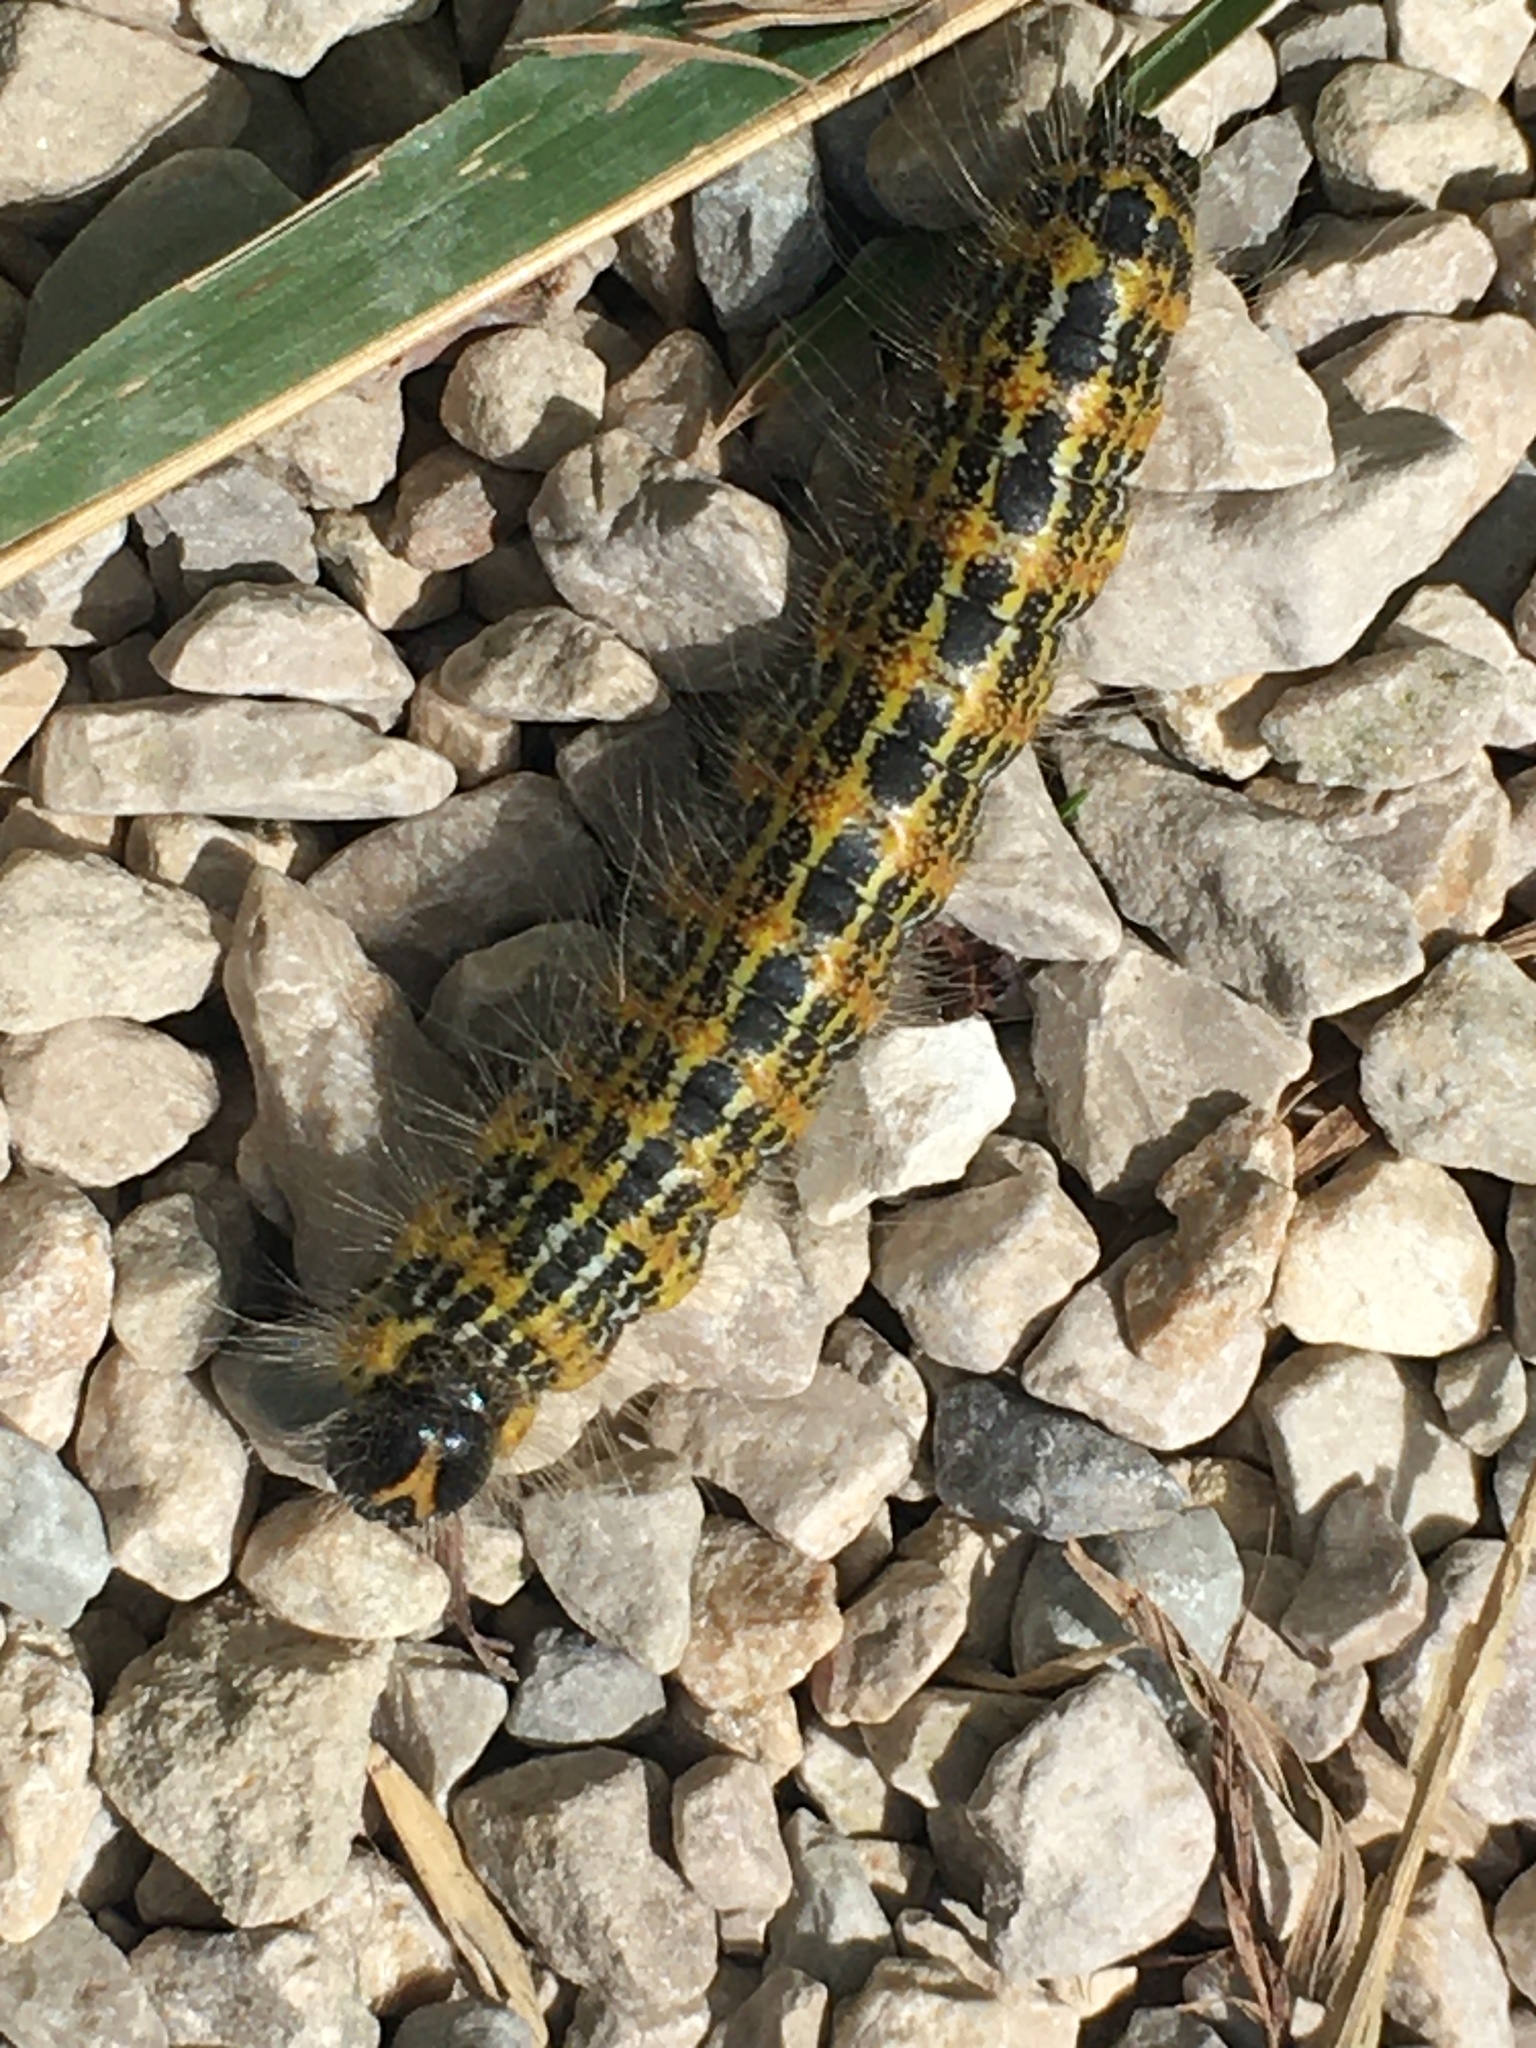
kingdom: Animalia
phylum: Arthropoda
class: Insecta
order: Lepidoptera
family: Notodontidae
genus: Phalera
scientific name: Phalera bucephala
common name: Buff-tip
